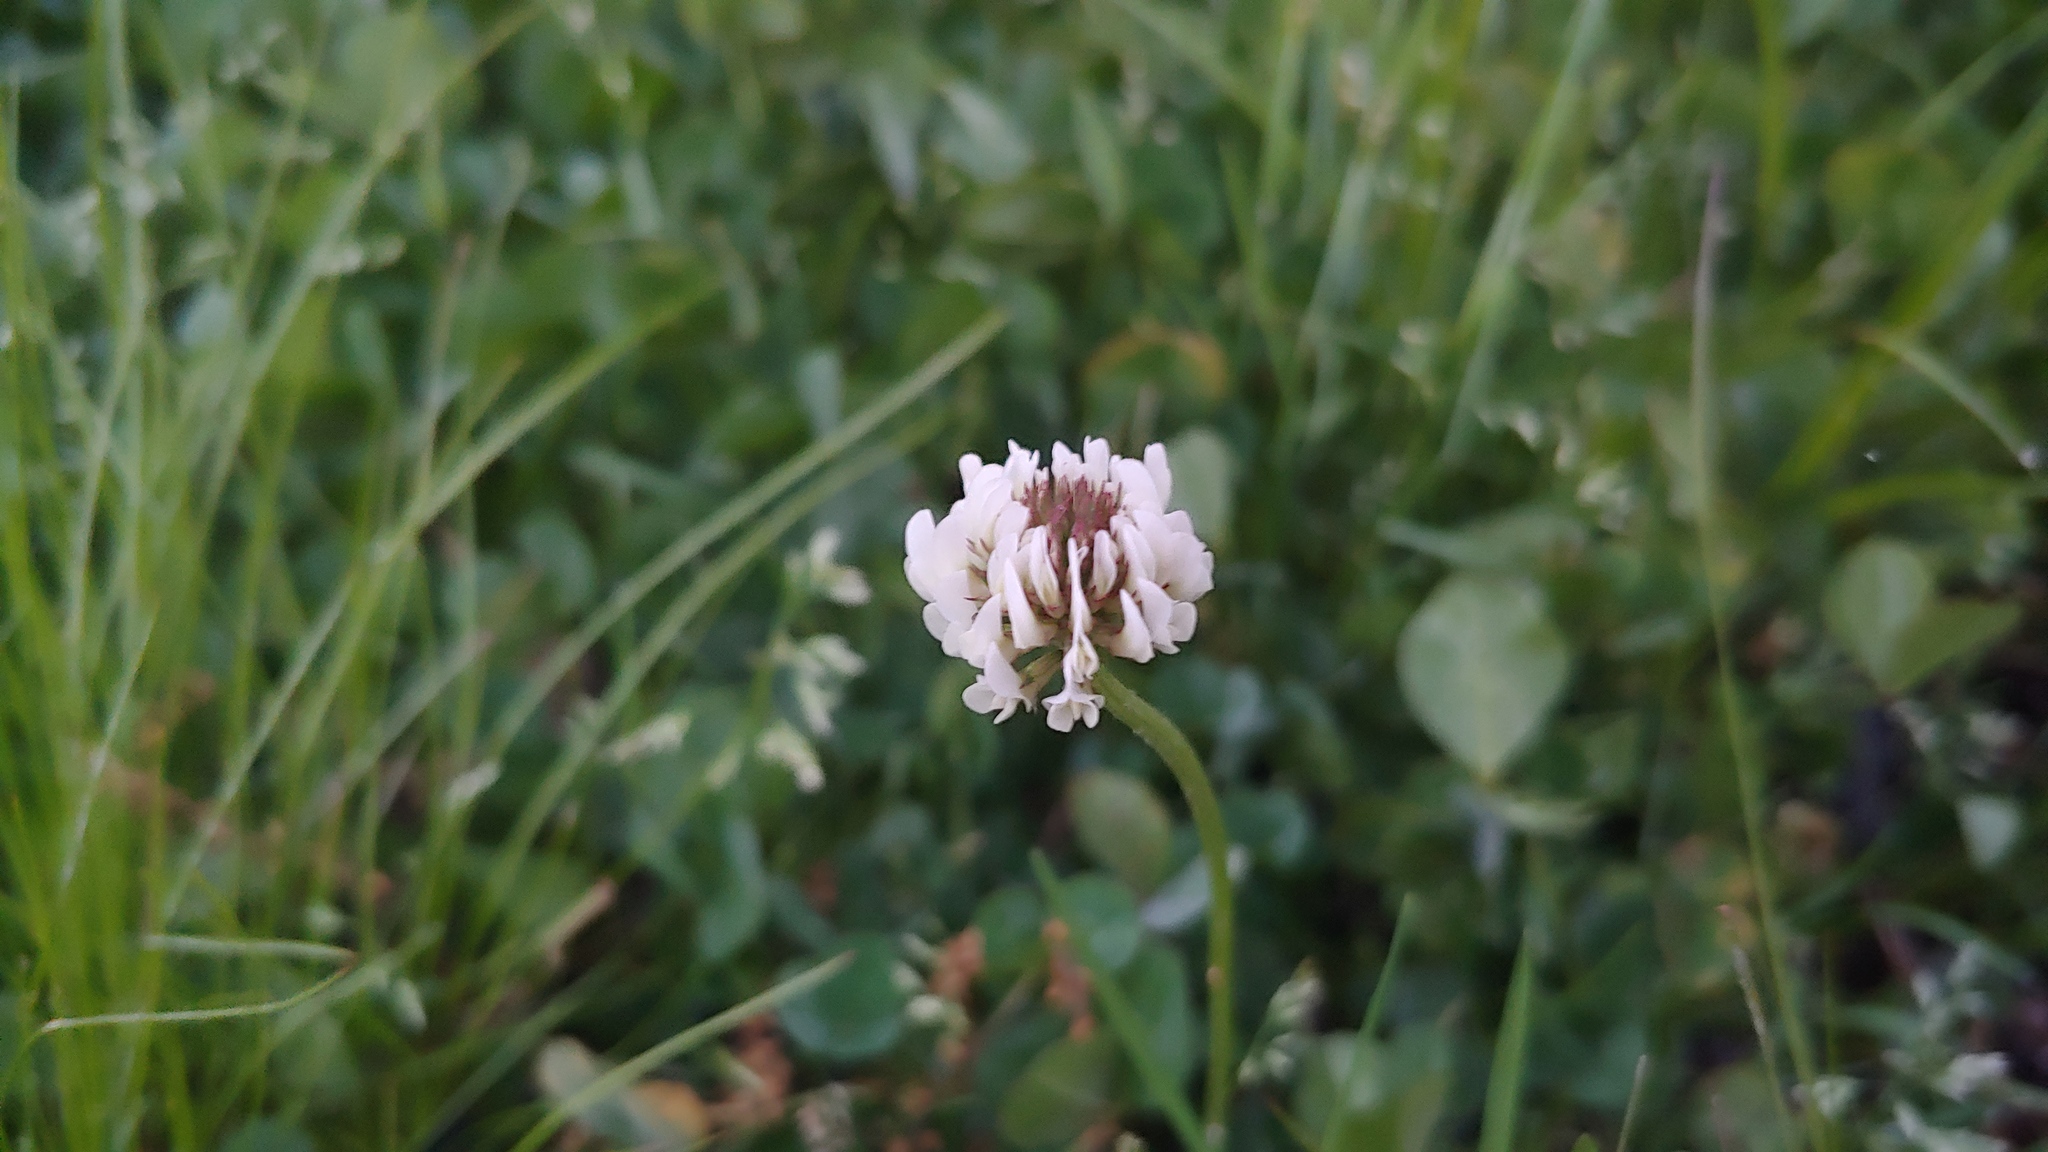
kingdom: Plantae
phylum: Tracheophyta
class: Magnoliopsida
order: Fabales
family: Fabaceae
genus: Trifolium
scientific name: Trifolium repens
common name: White clover
